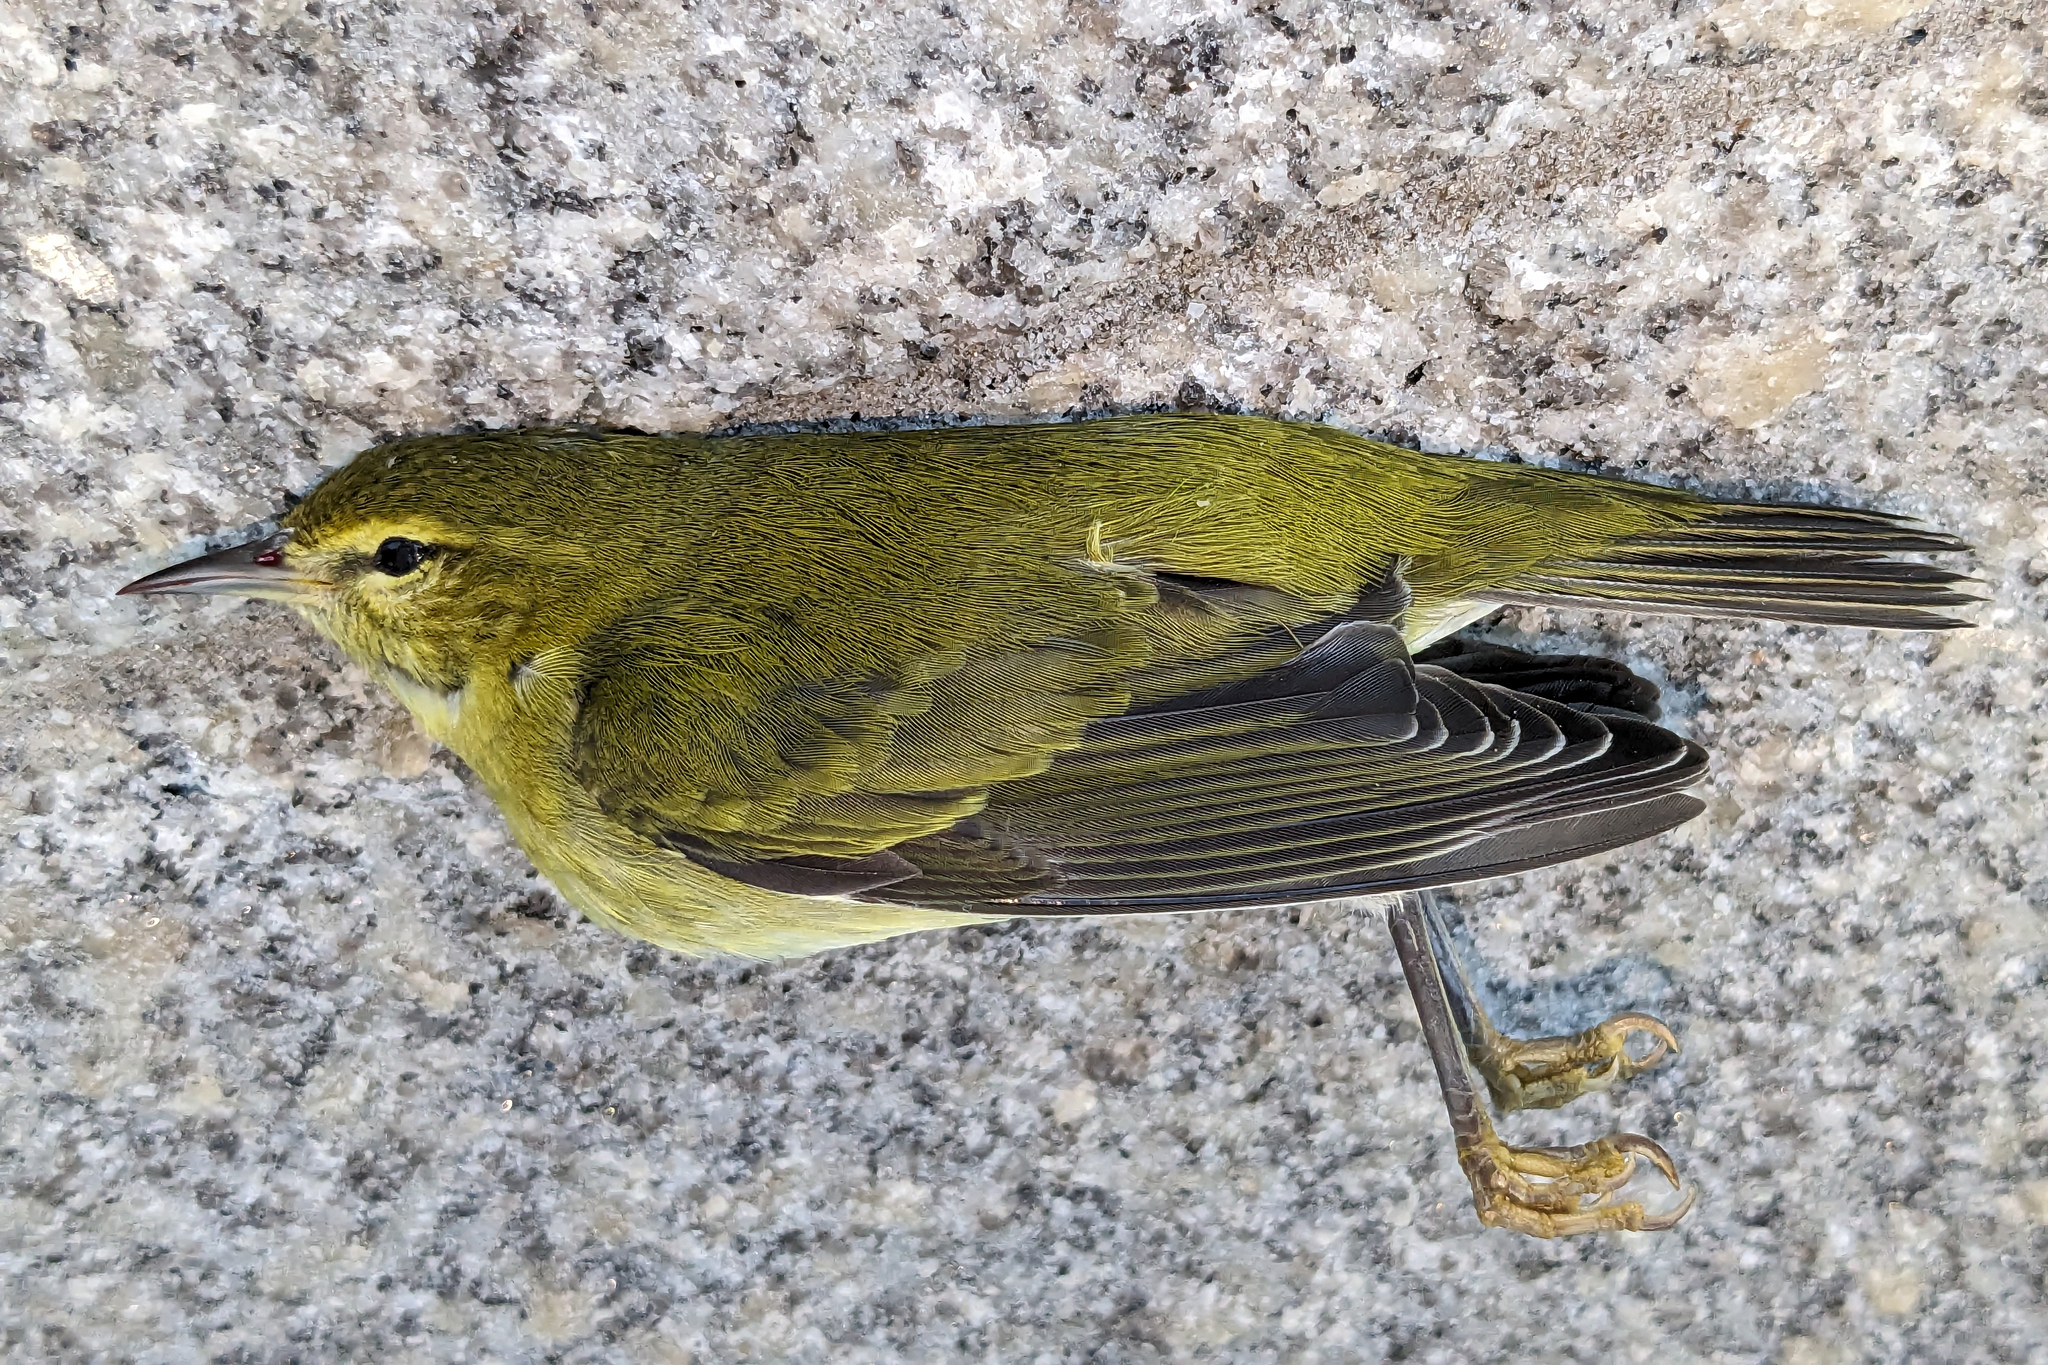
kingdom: Animalia
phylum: Chordata
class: Aves
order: Passeriformes
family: Parulidae
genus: Leiothlypis
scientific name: Leiothlypis peregrina
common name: Tennessee warbler
